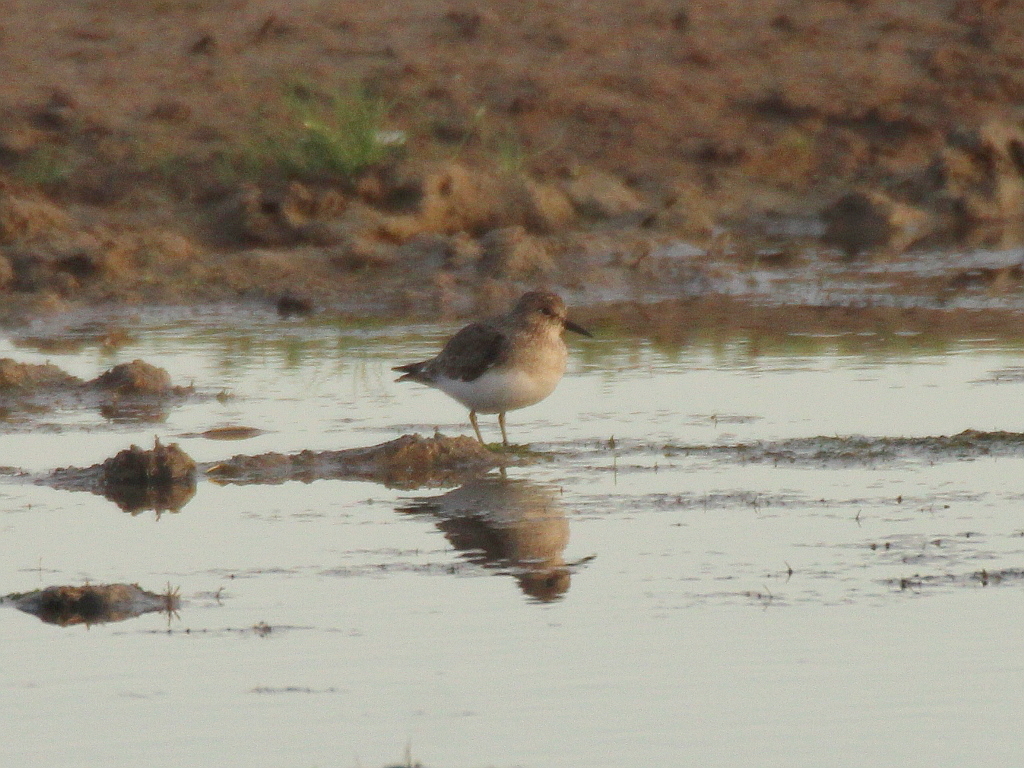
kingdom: Animalia
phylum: Chordata
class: Aves
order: Charadriiformes
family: Scolopacidae
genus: Calidris
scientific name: Calidris temminckii
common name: Temminck's stint
